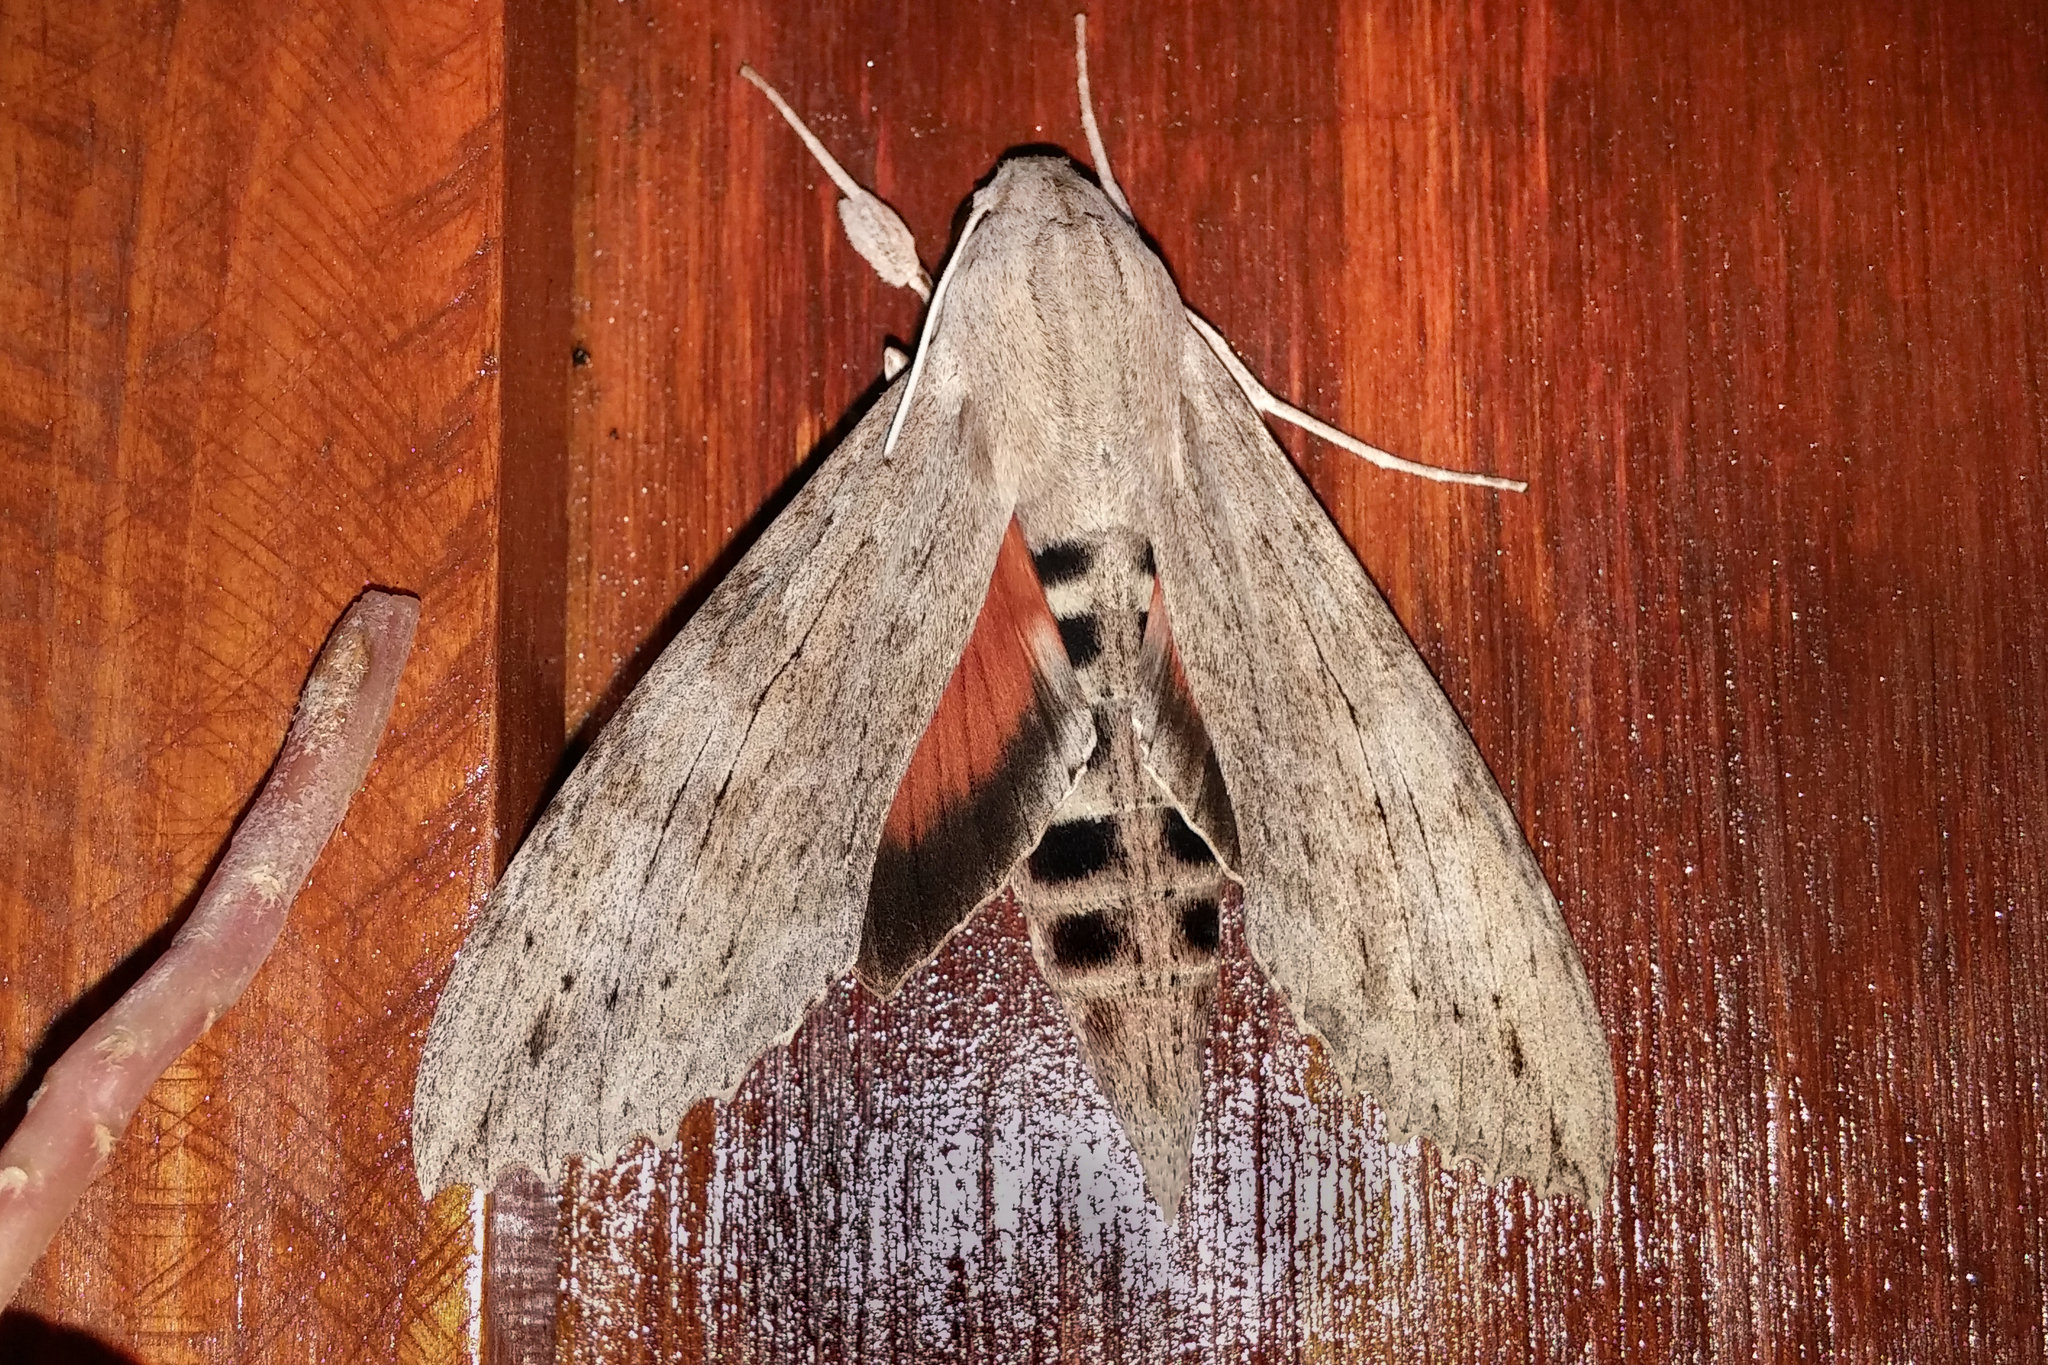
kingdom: Animalia
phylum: Arthropoda
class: Insecta
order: Lepidoptera
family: Sphingidae
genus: Erinnyis
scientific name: Erinnyis ello
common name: Ello sphinx
